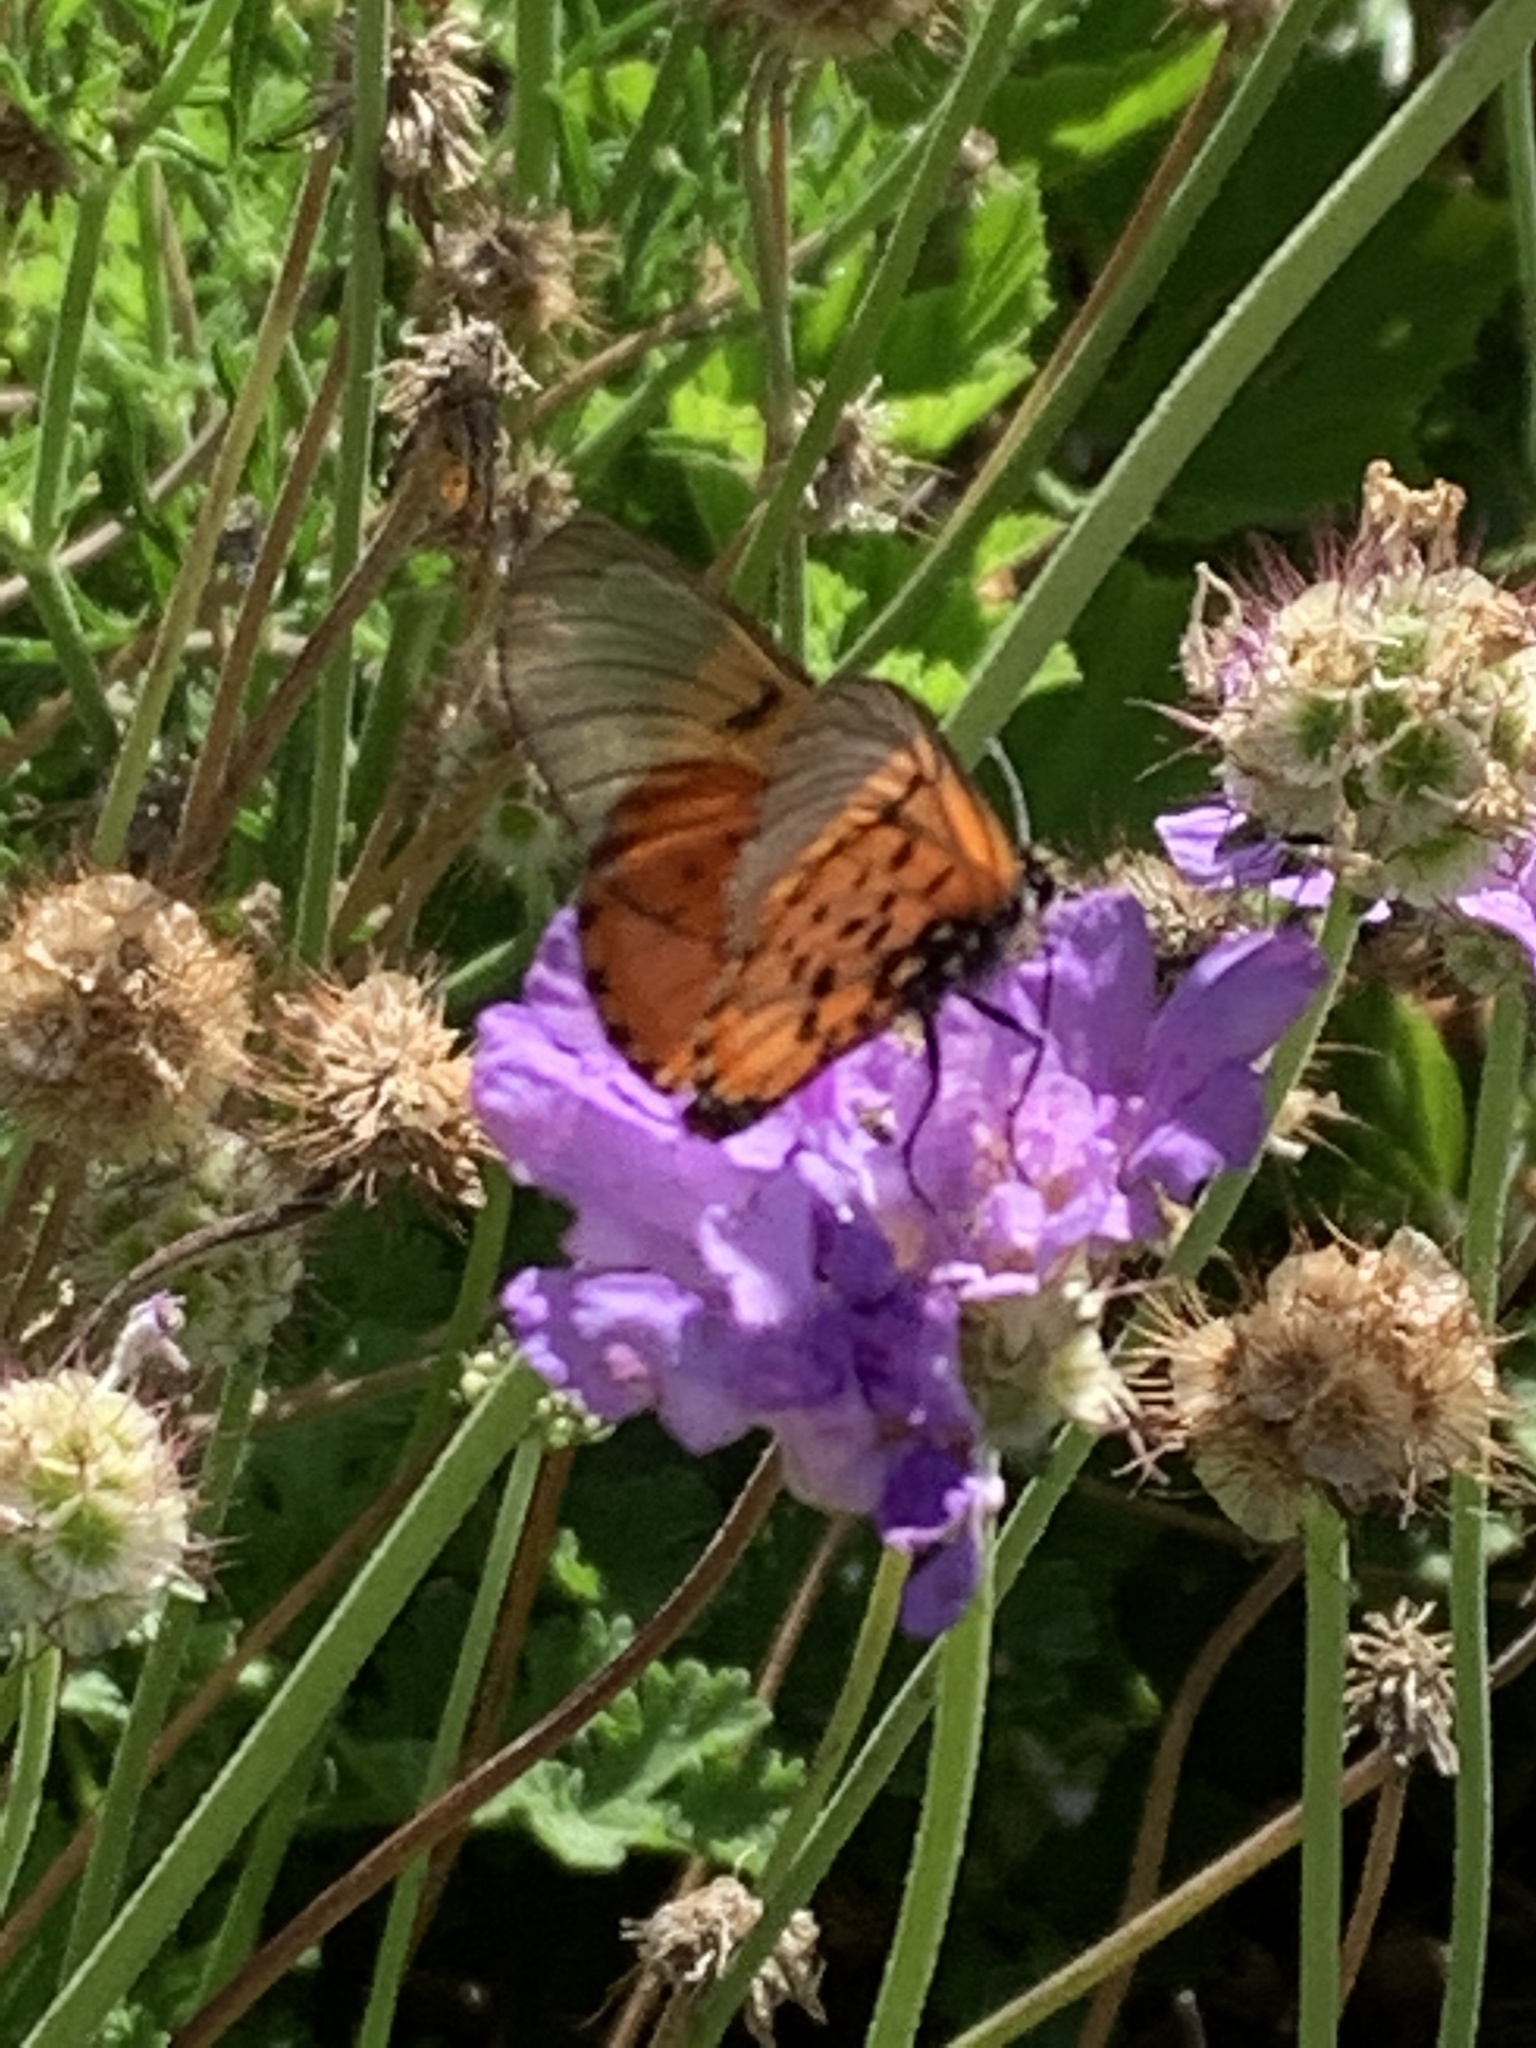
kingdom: Animalia
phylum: Arthropoda
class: Insecta
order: Lepidoptera
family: Nymphalidae
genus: Acraea
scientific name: Acraea horta
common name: Garden acraea
